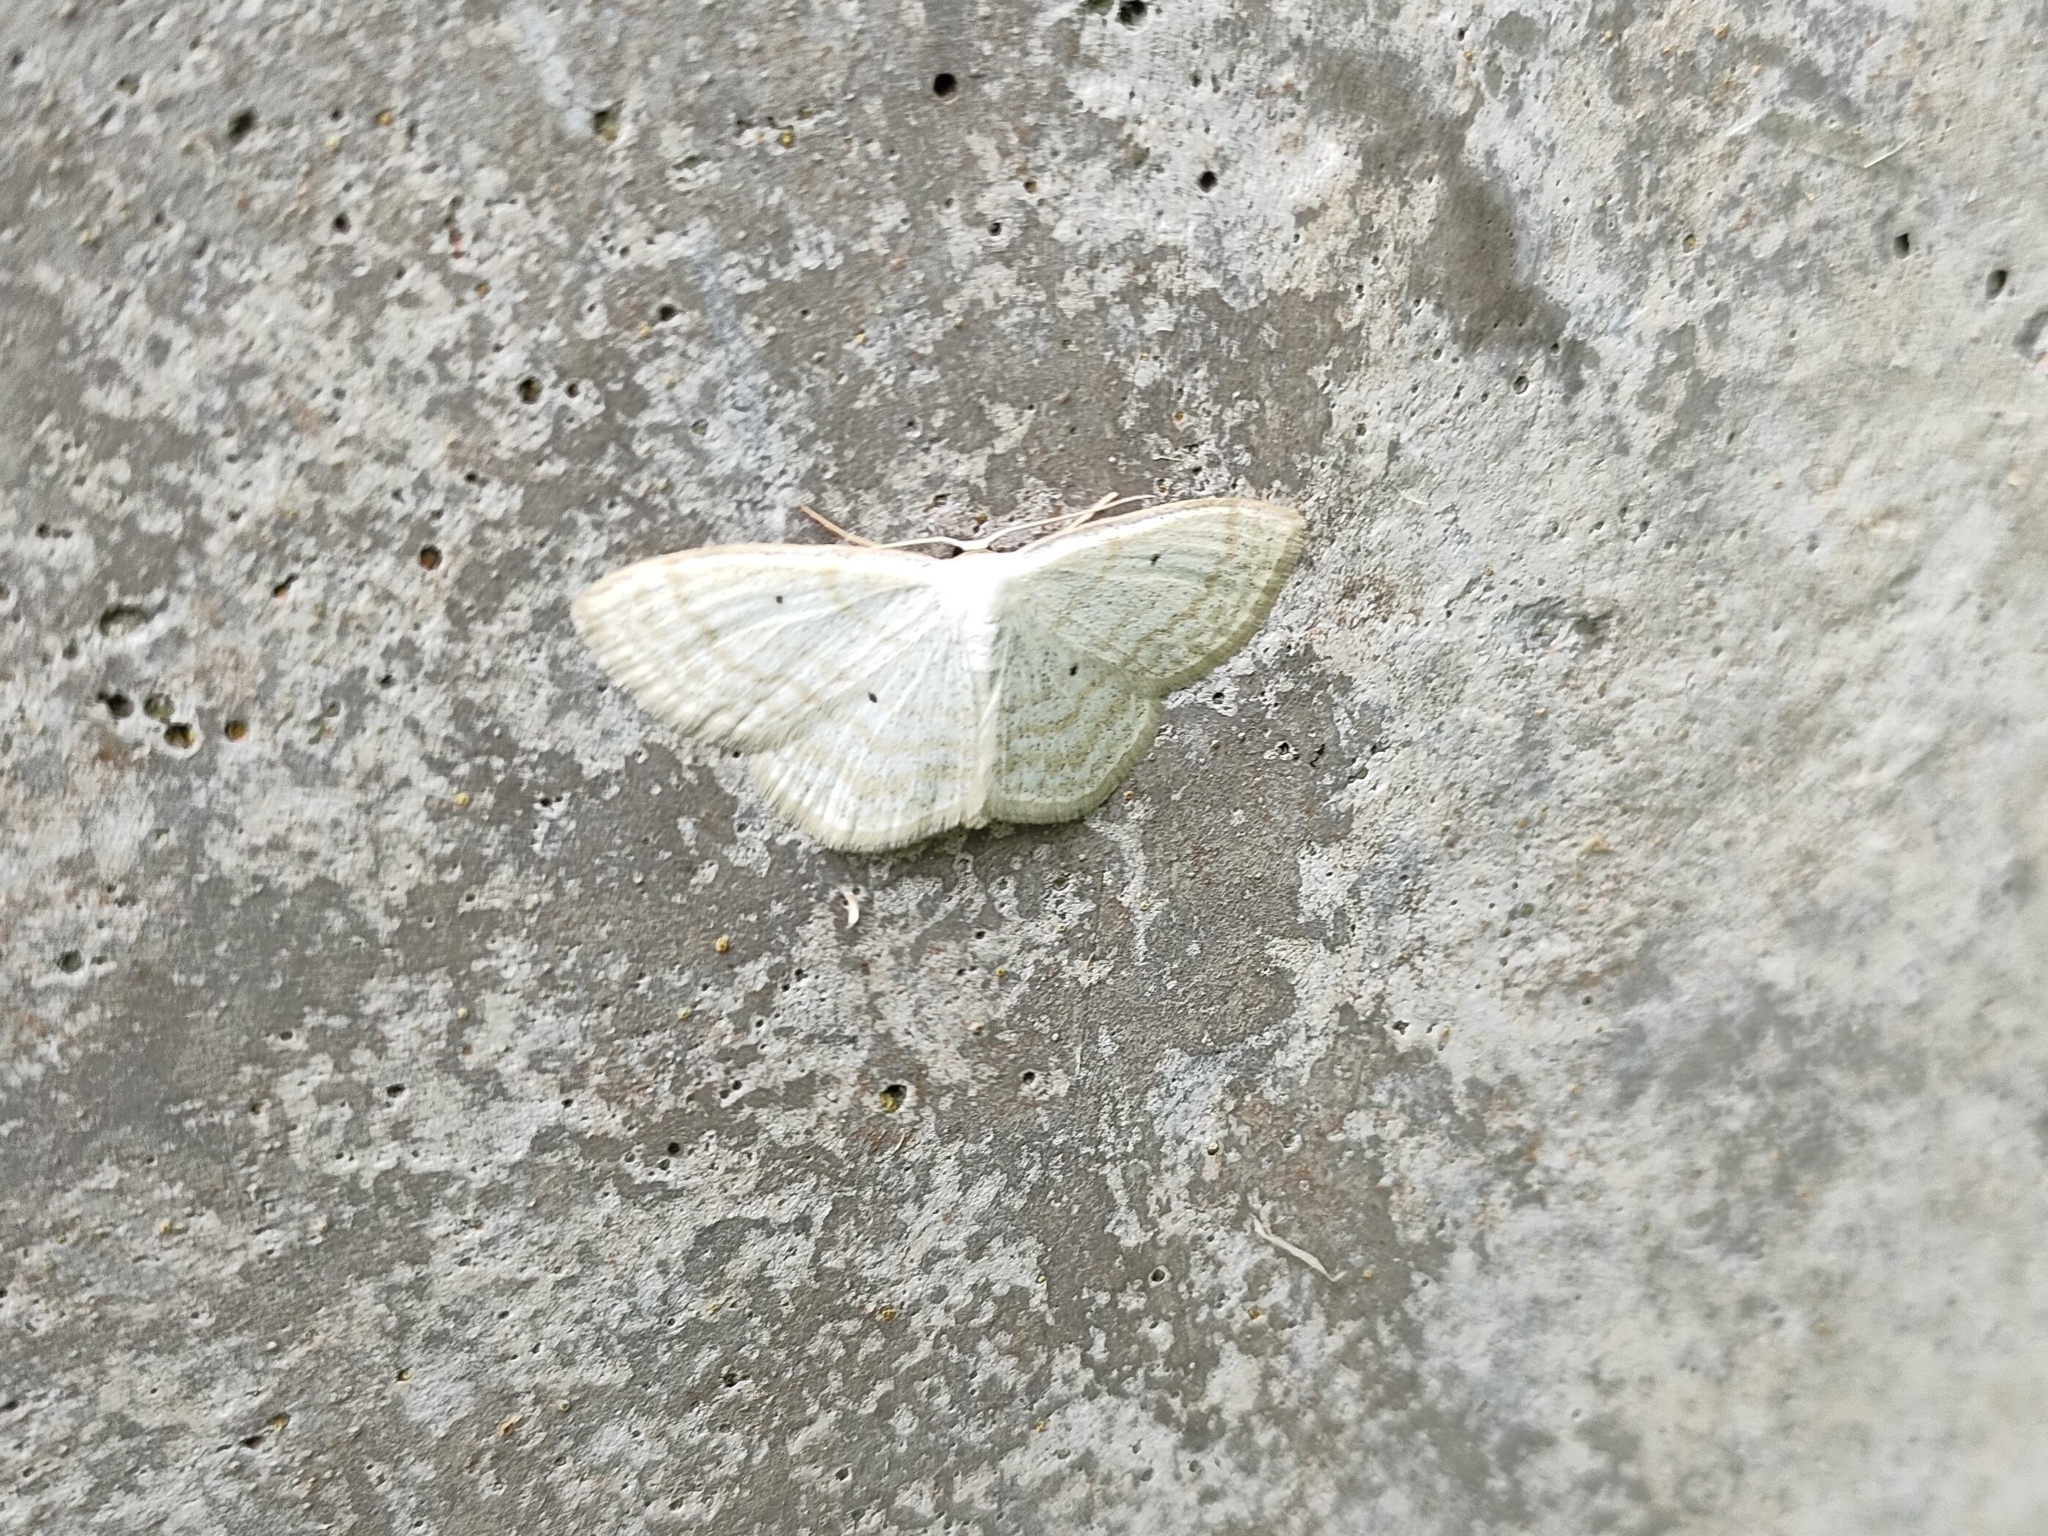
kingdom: Animalia
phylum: Arthropoda
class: Insecta
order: Lepidoptera
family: Geometridae
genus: Scopula
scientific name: Scopula immutata
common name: Lesser cream wave
